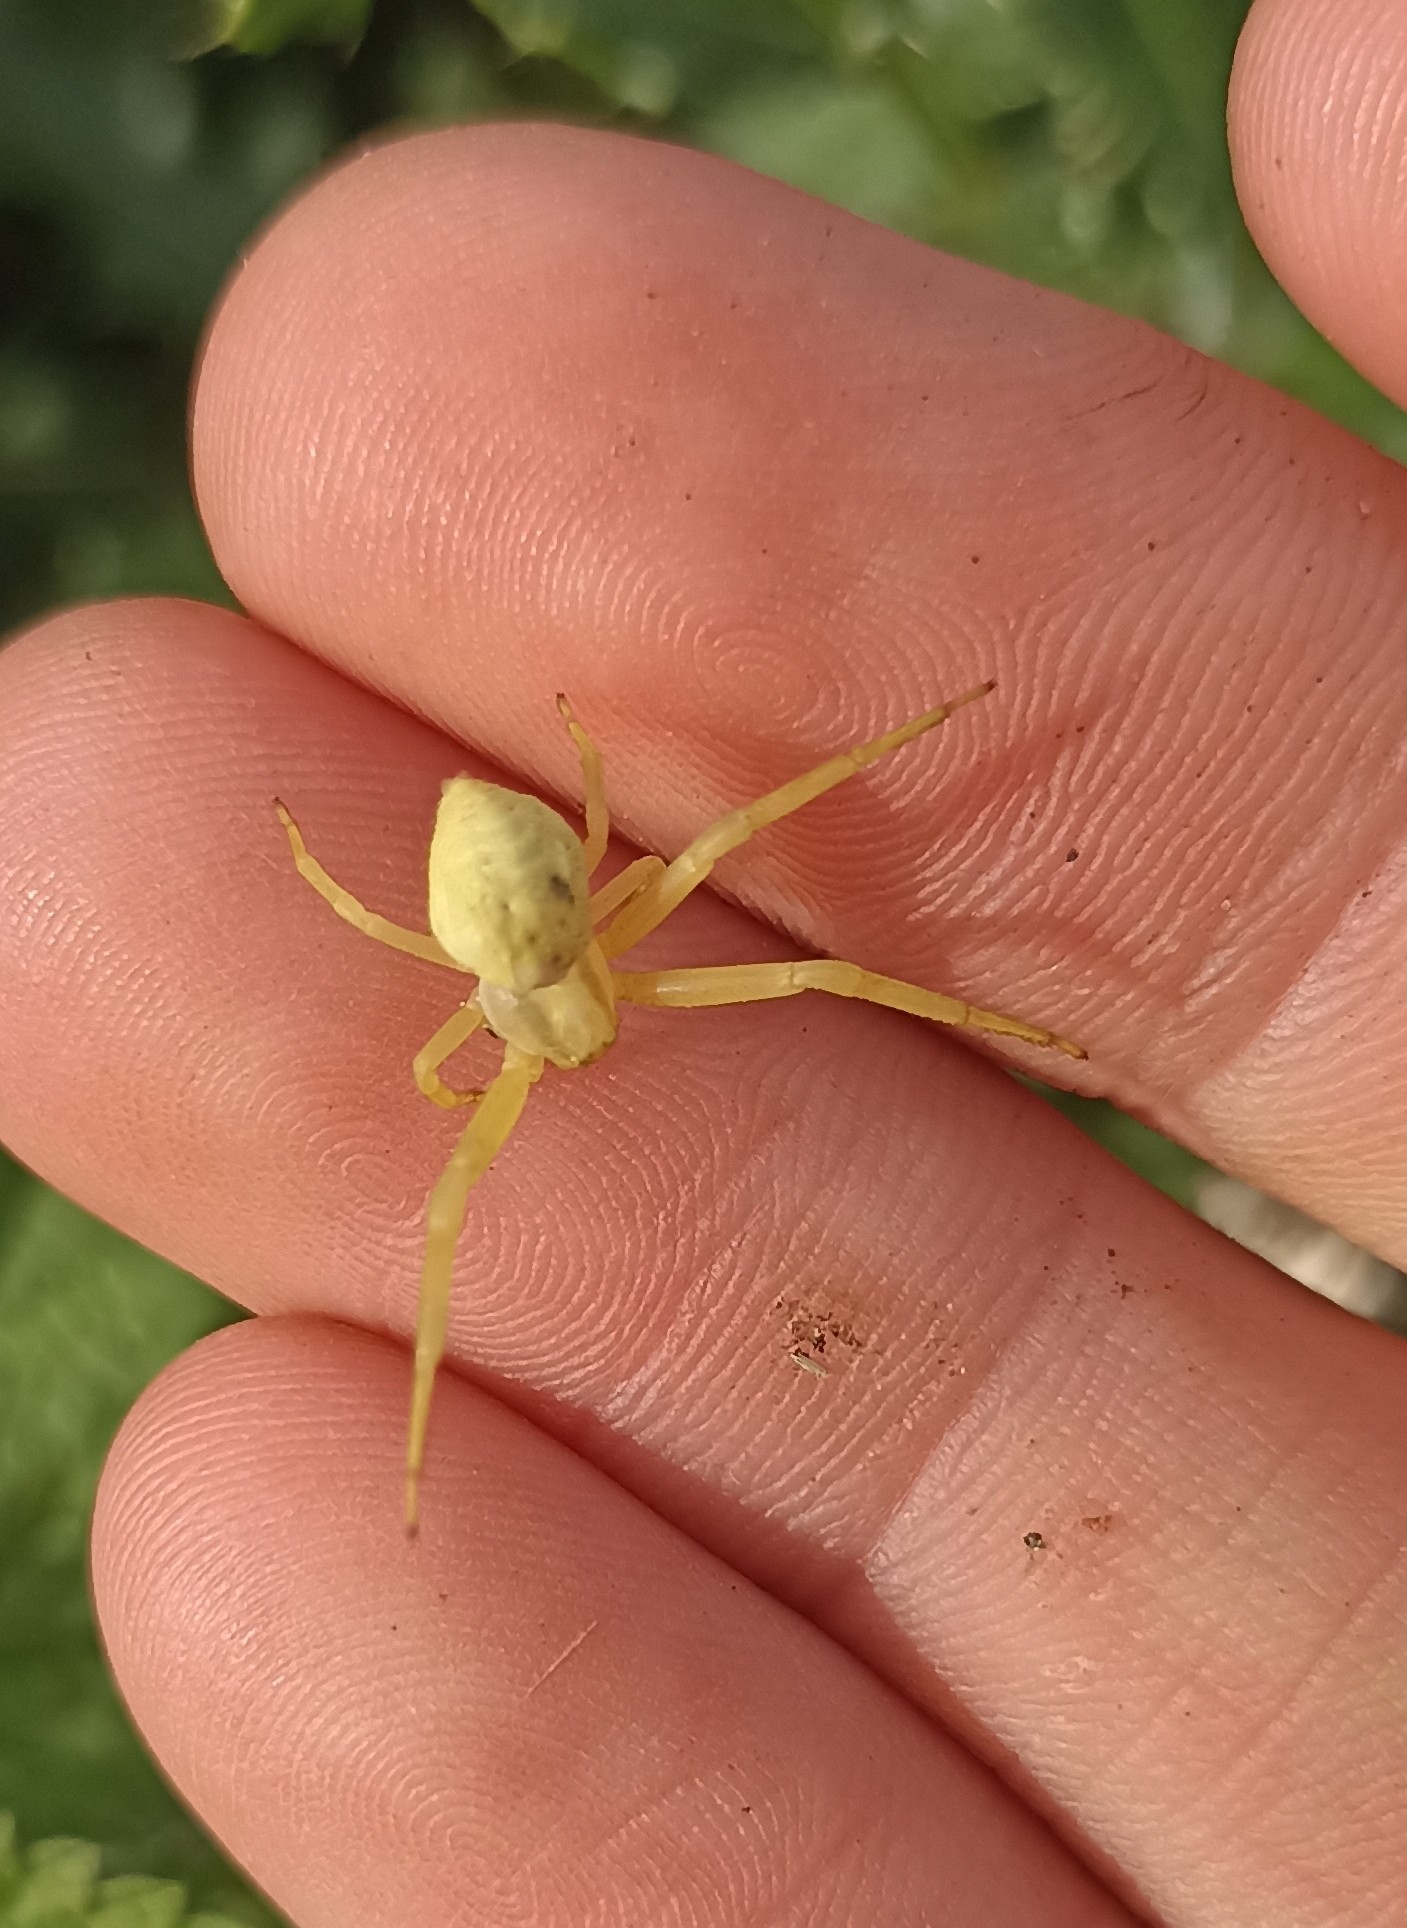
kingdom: Animalia
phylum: Arthropoda
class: Arachnida
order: Araneae
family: Thomisidae
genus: Misumena
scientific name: Misumena vatia
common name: Goldenrod crab spider
